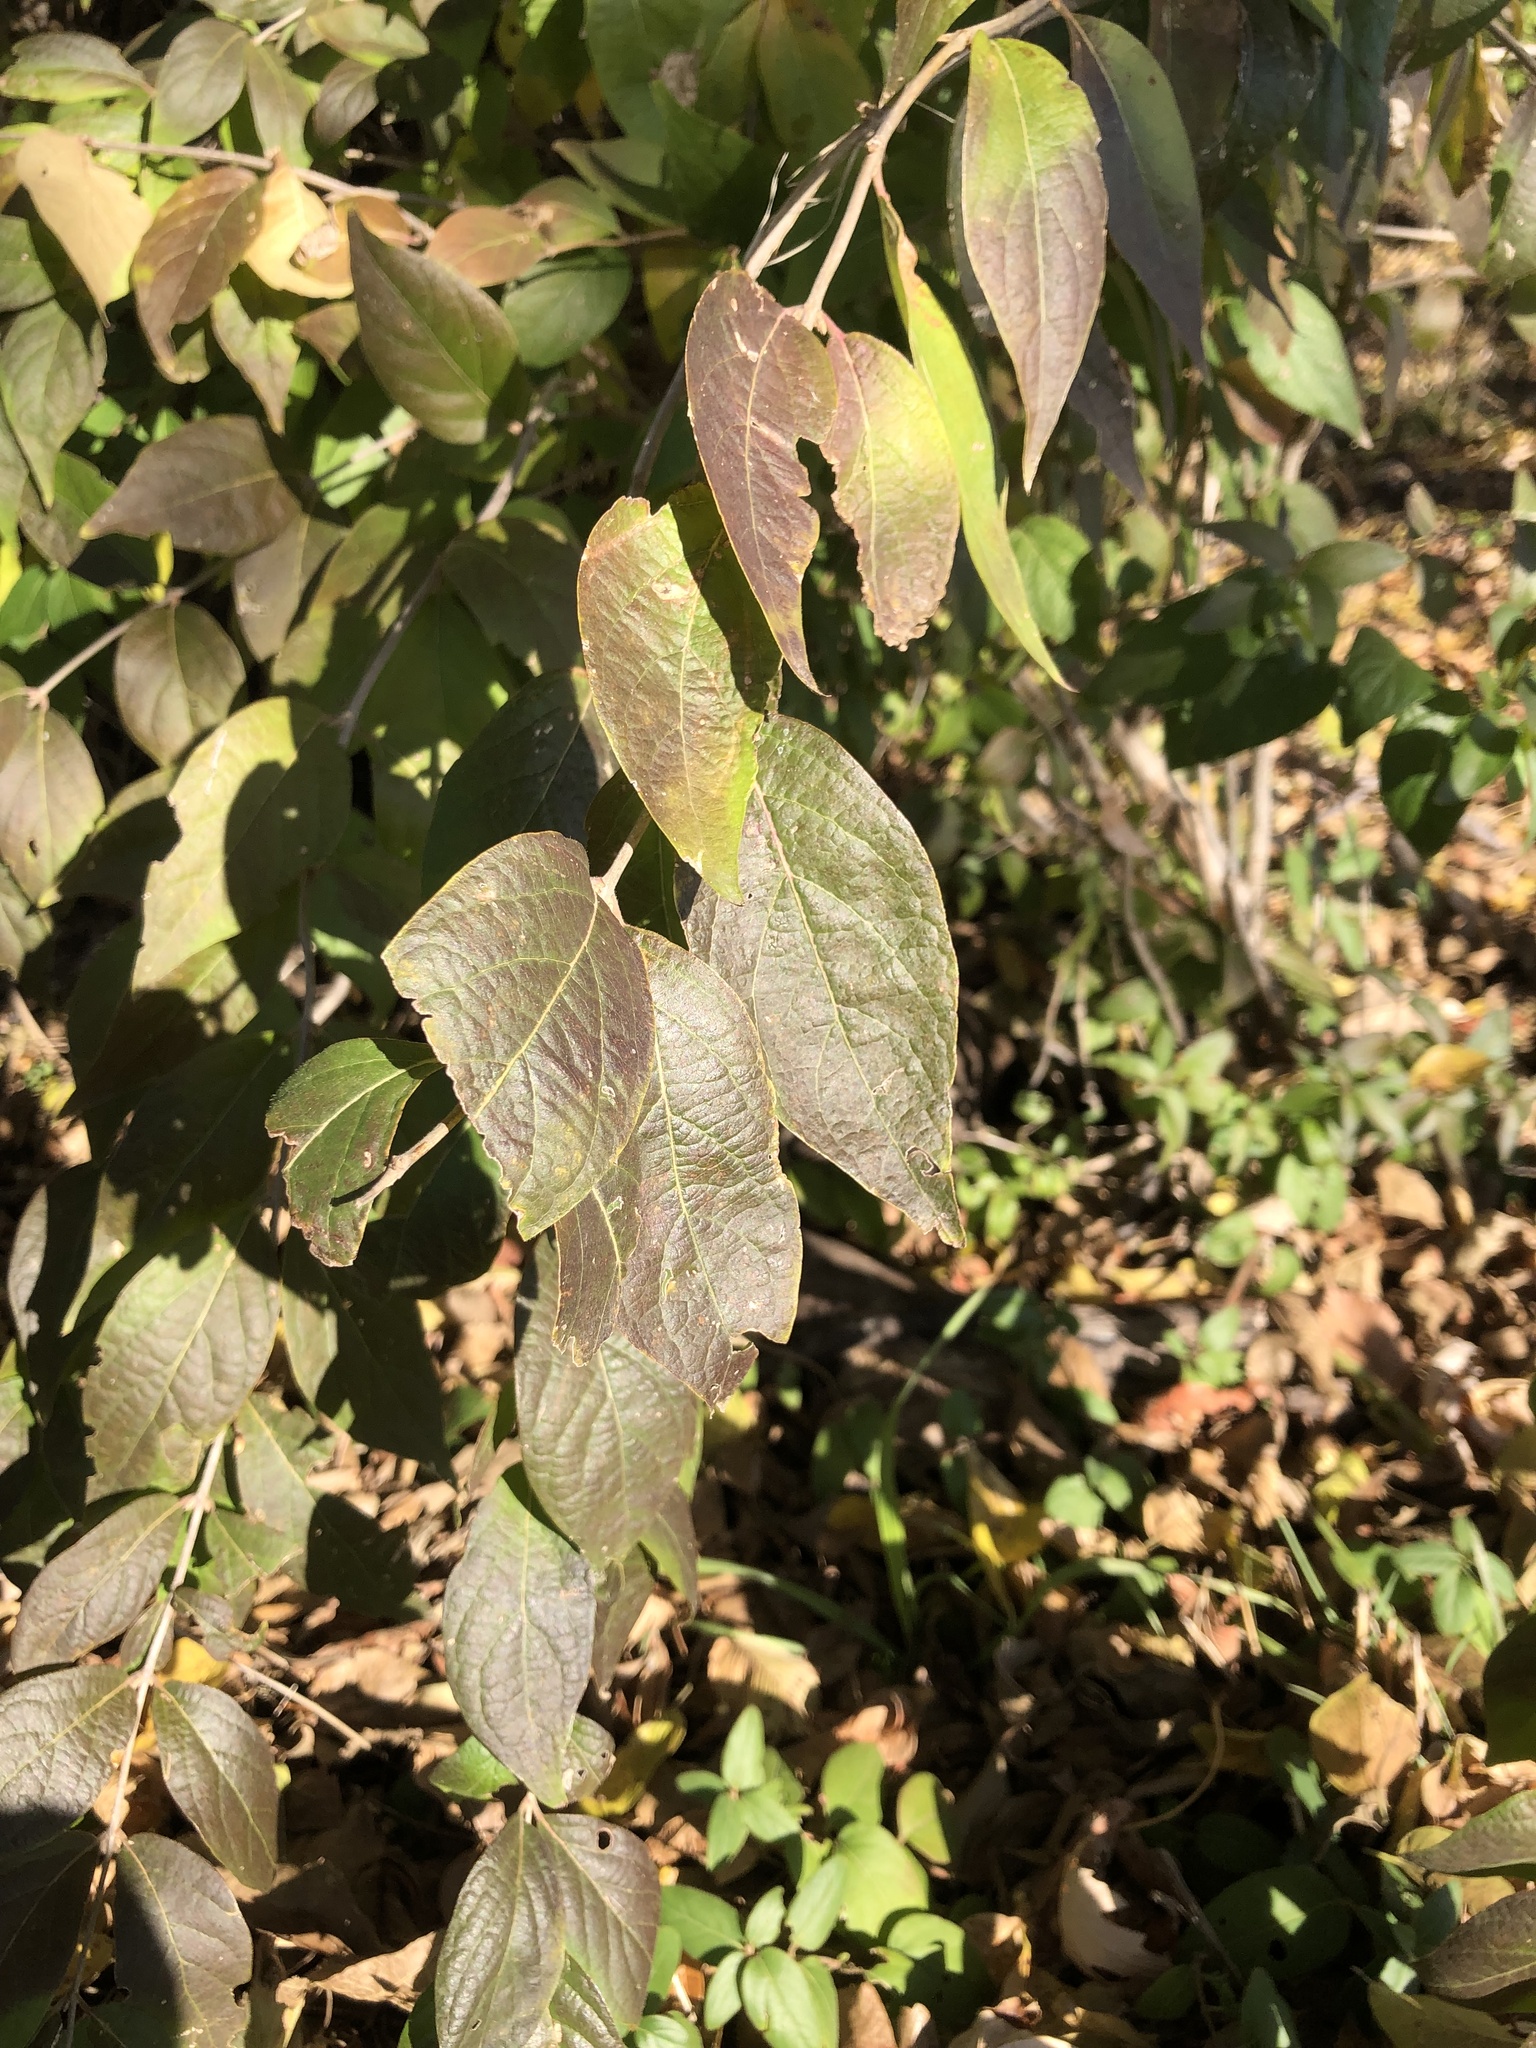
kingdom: Plantae
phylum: Tracheophyta
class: Magnoliopsida
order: Dipsacales
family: Caprifoliaceae
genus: Lonicera
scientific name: Lonicera maackii
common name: Amur honeysuckle
